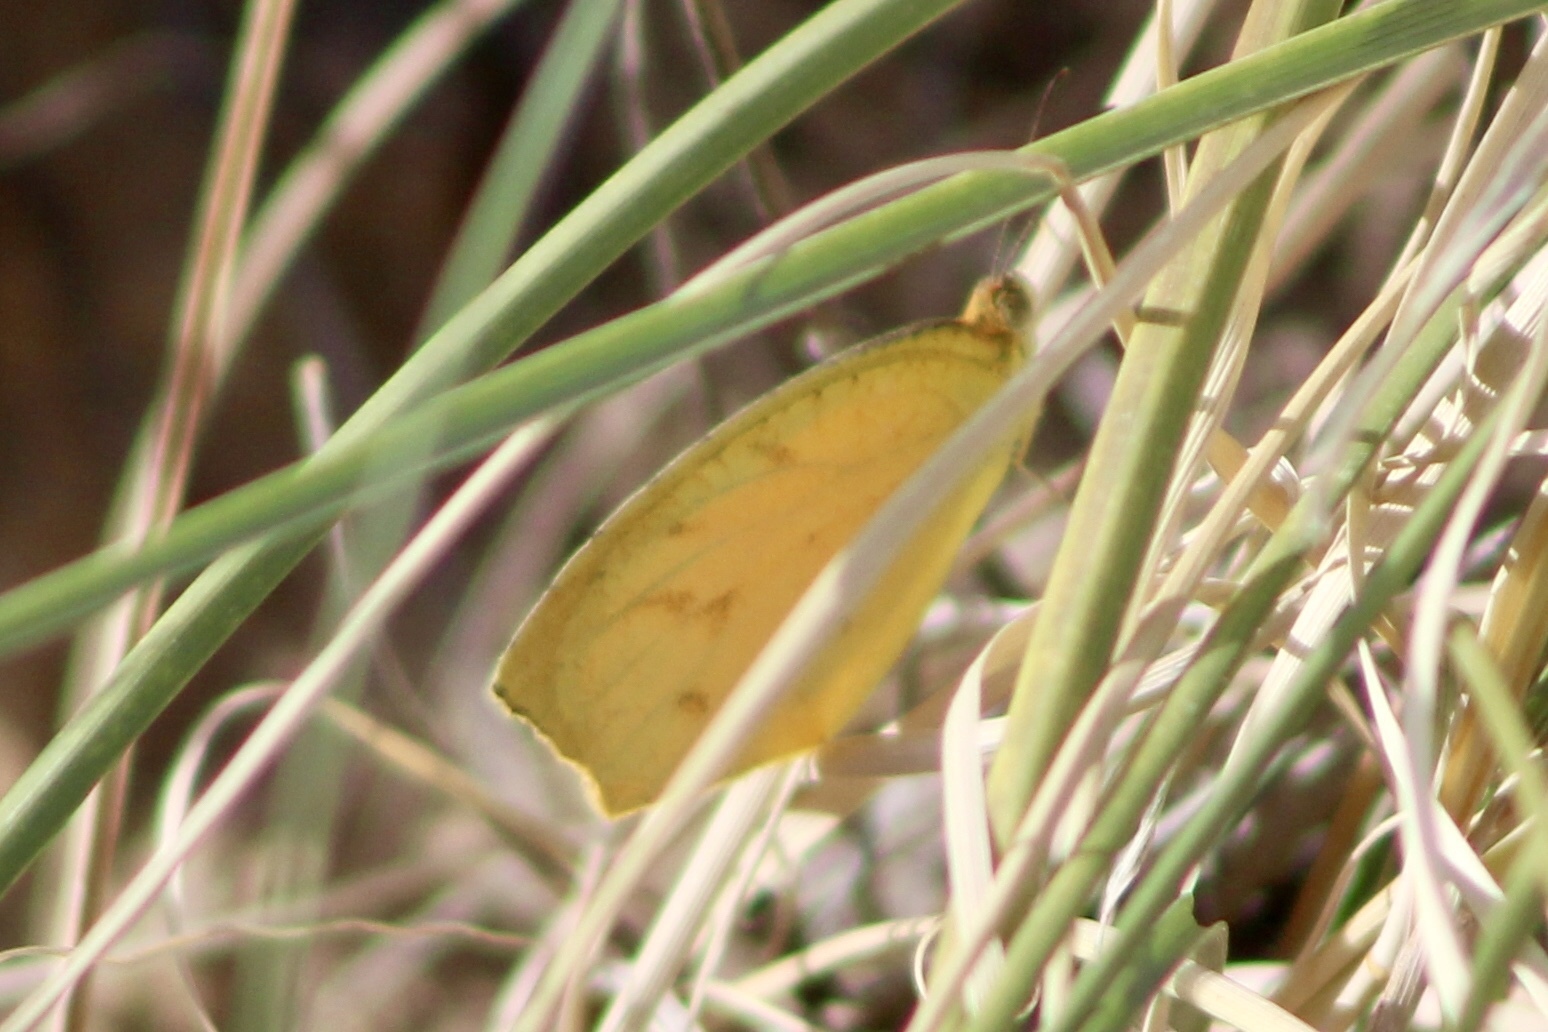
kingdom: Animalia
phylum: Arthropoda
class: Insecta
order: Lepidoptera
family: Pieridae
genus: Pyrisitia
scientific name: Pyrisitia proterpia
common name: Tailed orange
